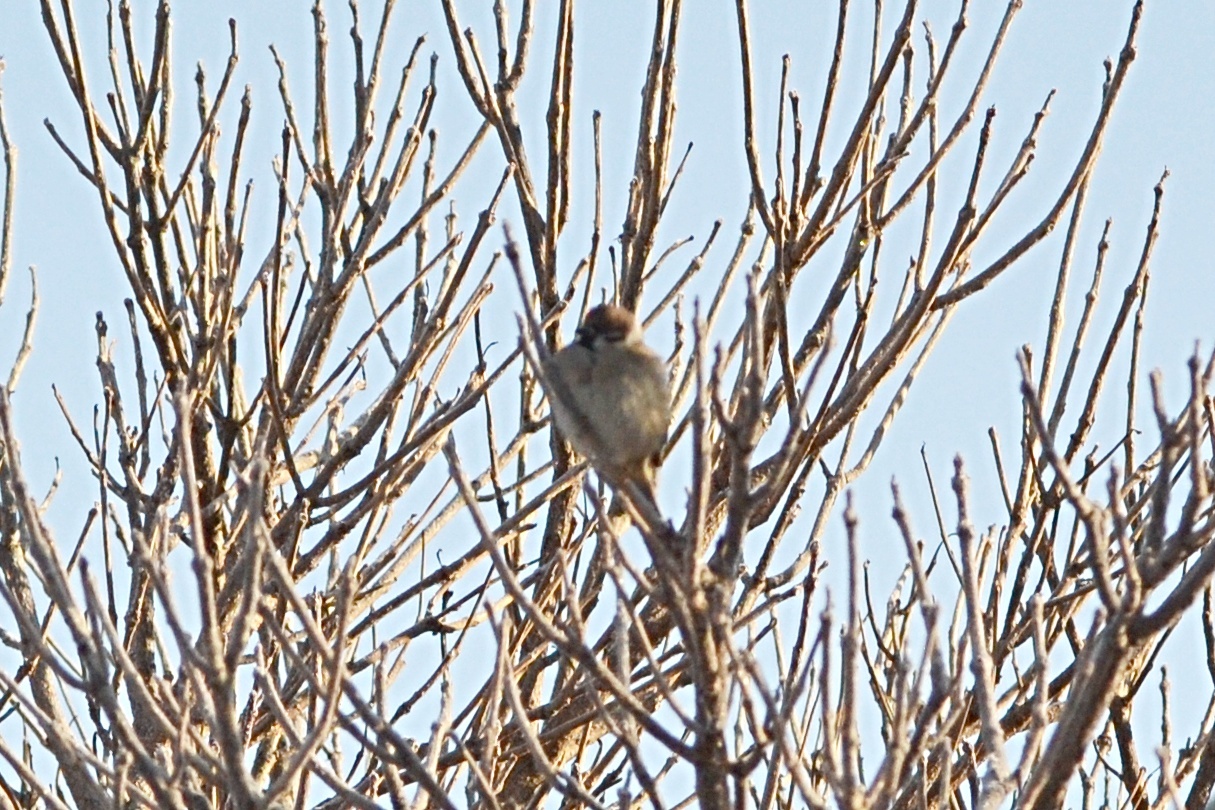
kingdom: Animalia
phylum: Chordata
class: Aves
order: Passeriformes
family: Passeridae
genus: Passer
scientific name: Passer montanus
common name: Eurasian tree sparrow
